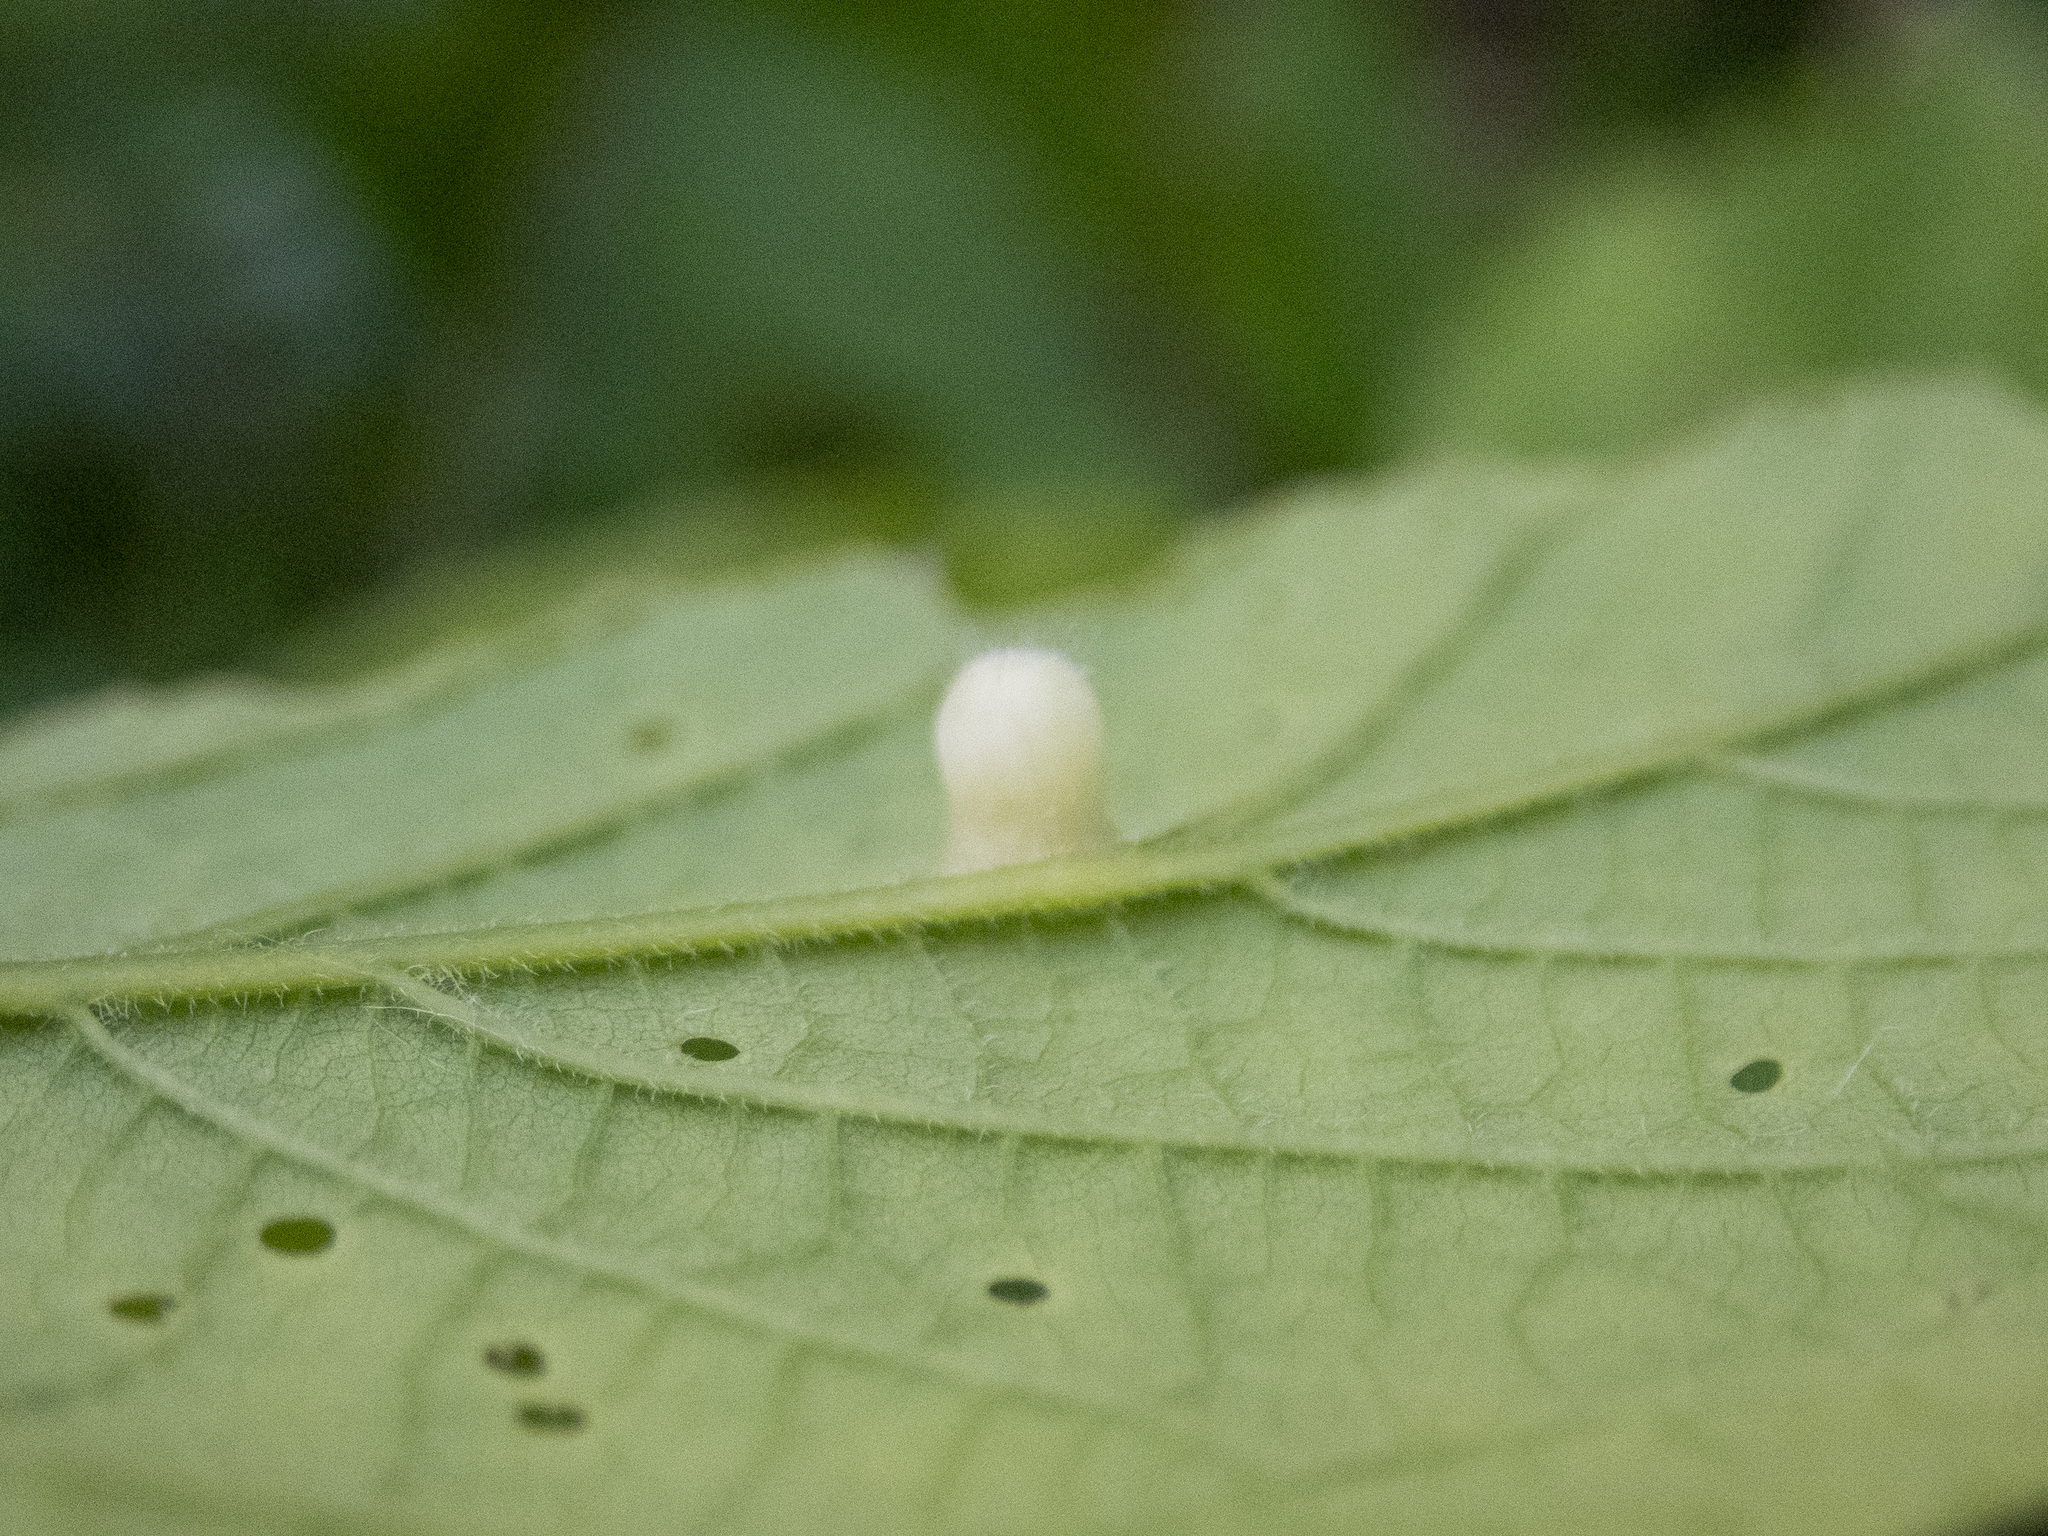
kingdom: Animalia
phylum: Arthropoda
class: Insecta
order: Hemiptera
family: Aphalaridae
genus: Pachypsylla
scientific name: Pachypsylla celtidismamma
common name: Hackberry nipplegall psyllid
